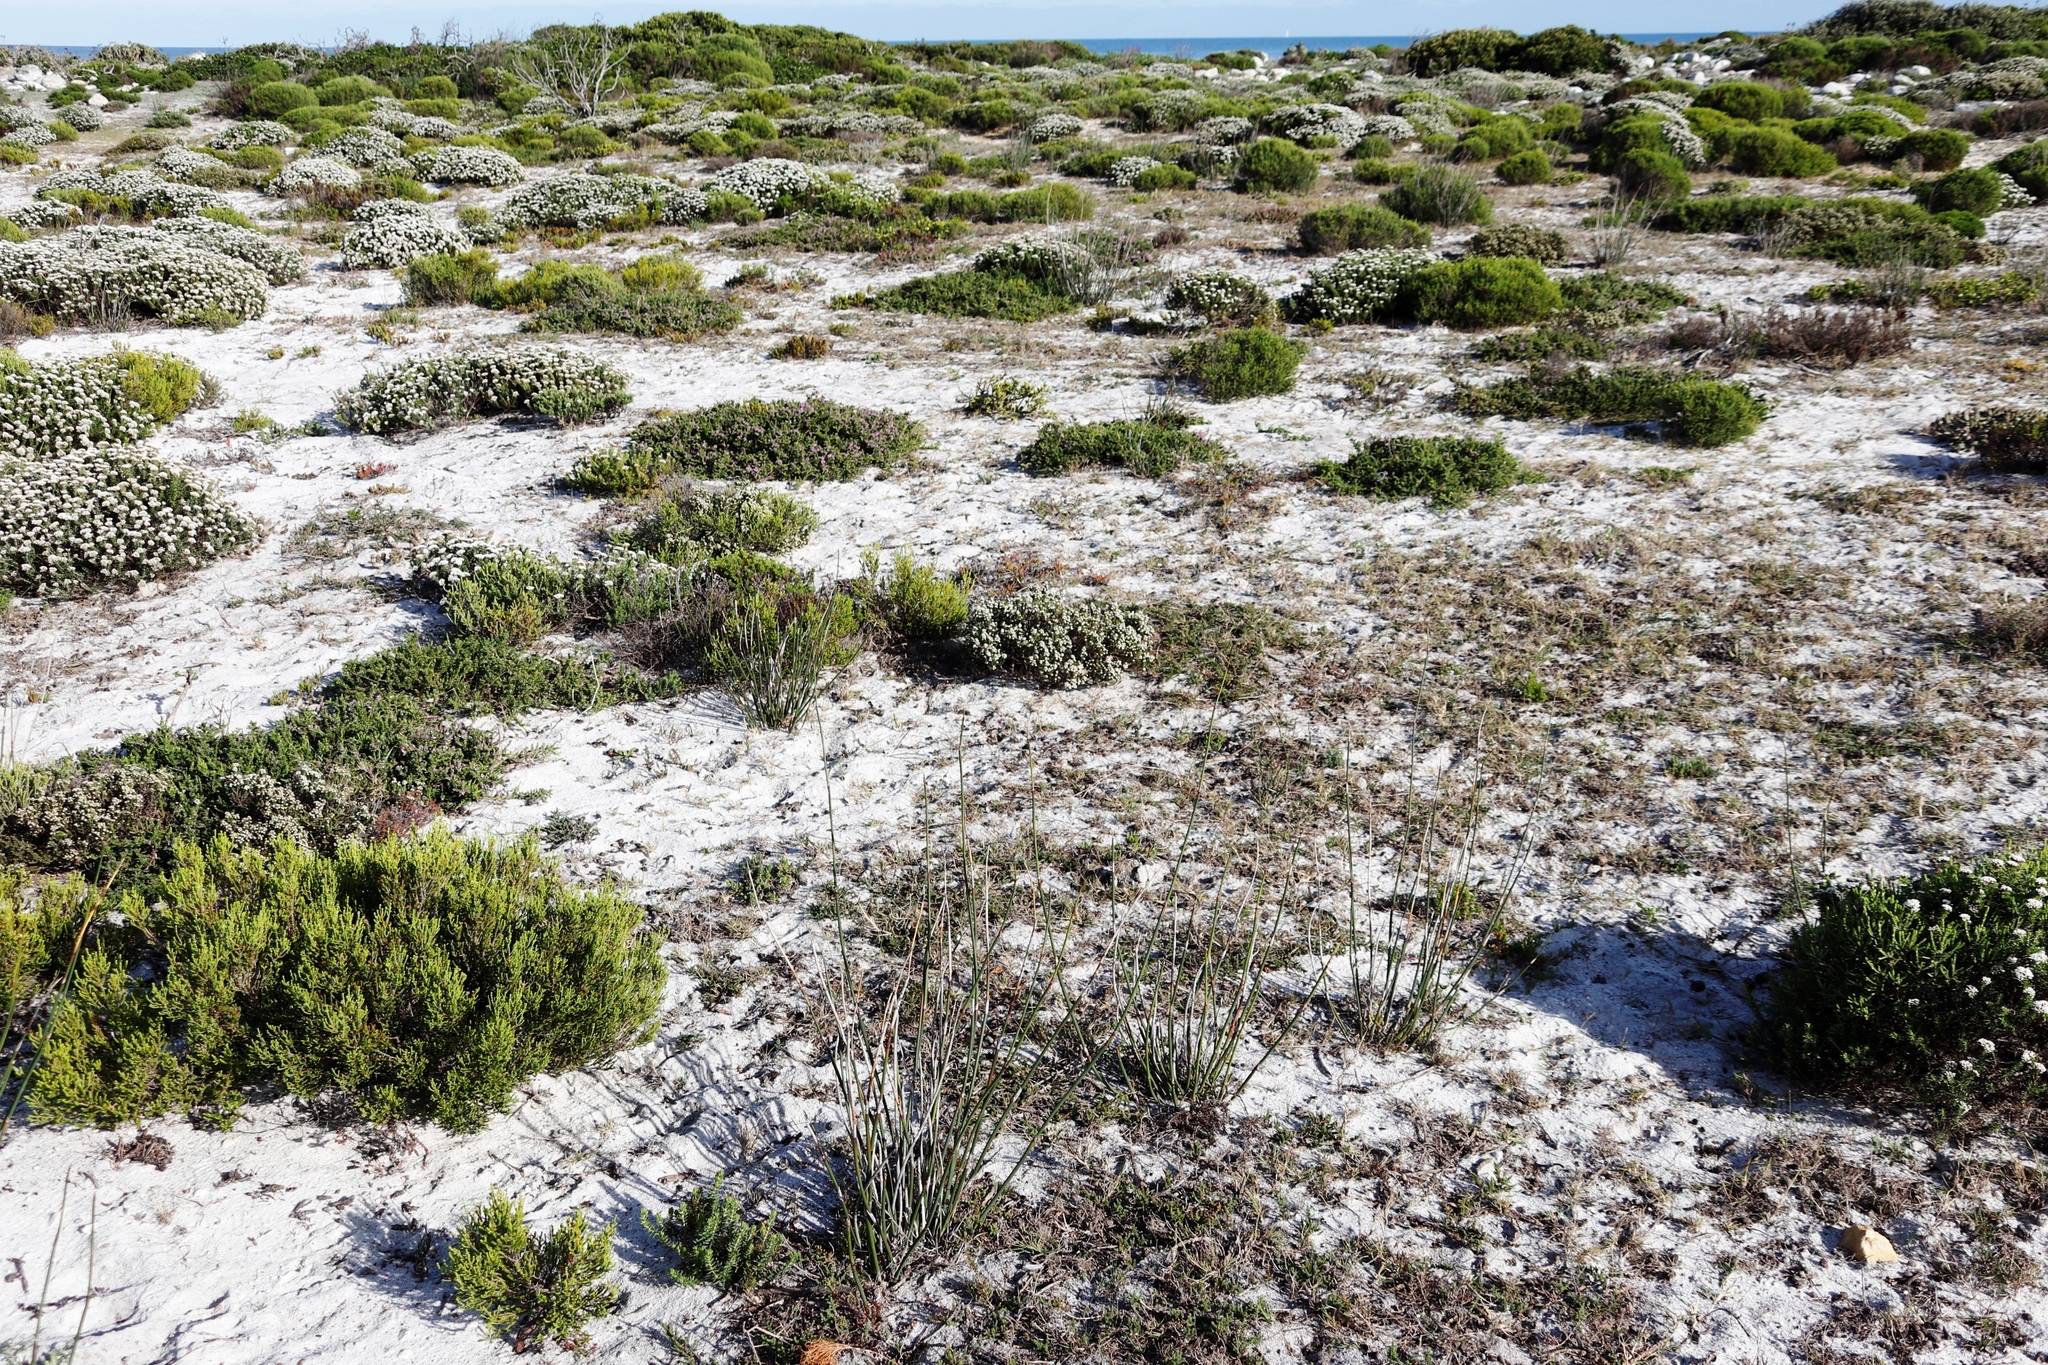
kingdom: Plantae
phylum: Tracheophyta
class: Magnoliopsida
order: Rosales
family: Rhamnaceae
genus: Phylica
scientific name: Phylica ericoides
